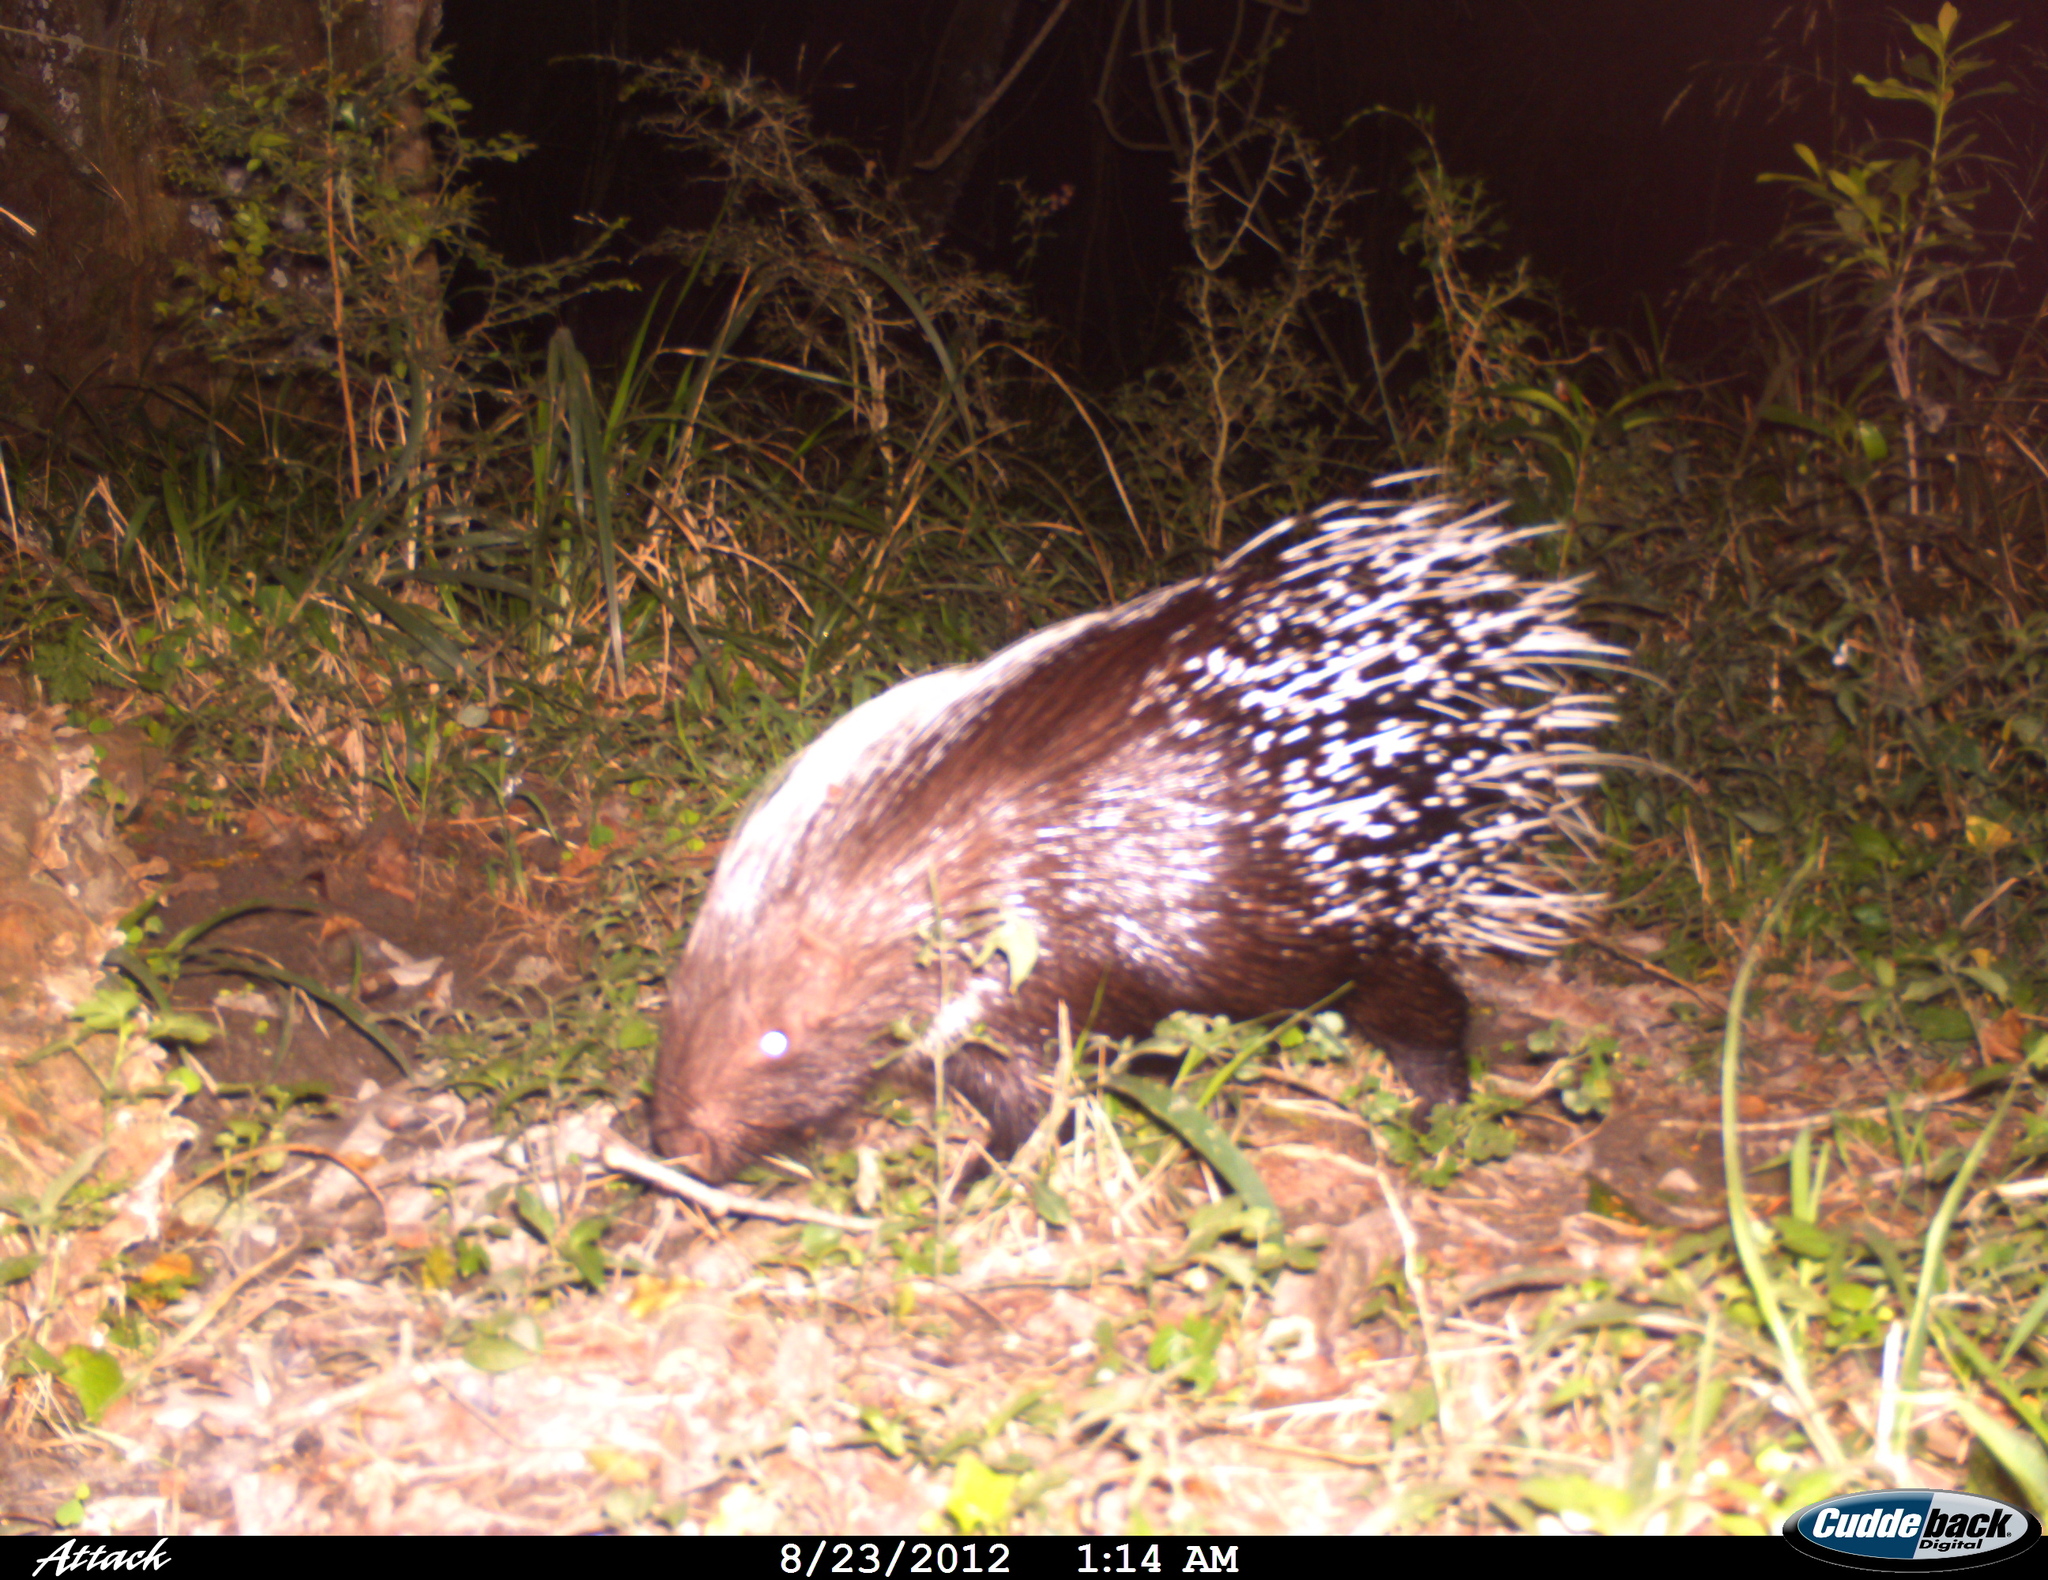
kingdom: Animalia
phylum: Chordata
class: Mammalia
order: Rodentia
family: Hystricidae
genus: Hystrix
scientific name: Hystrix africaeaustralis
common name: Cape porcupine
